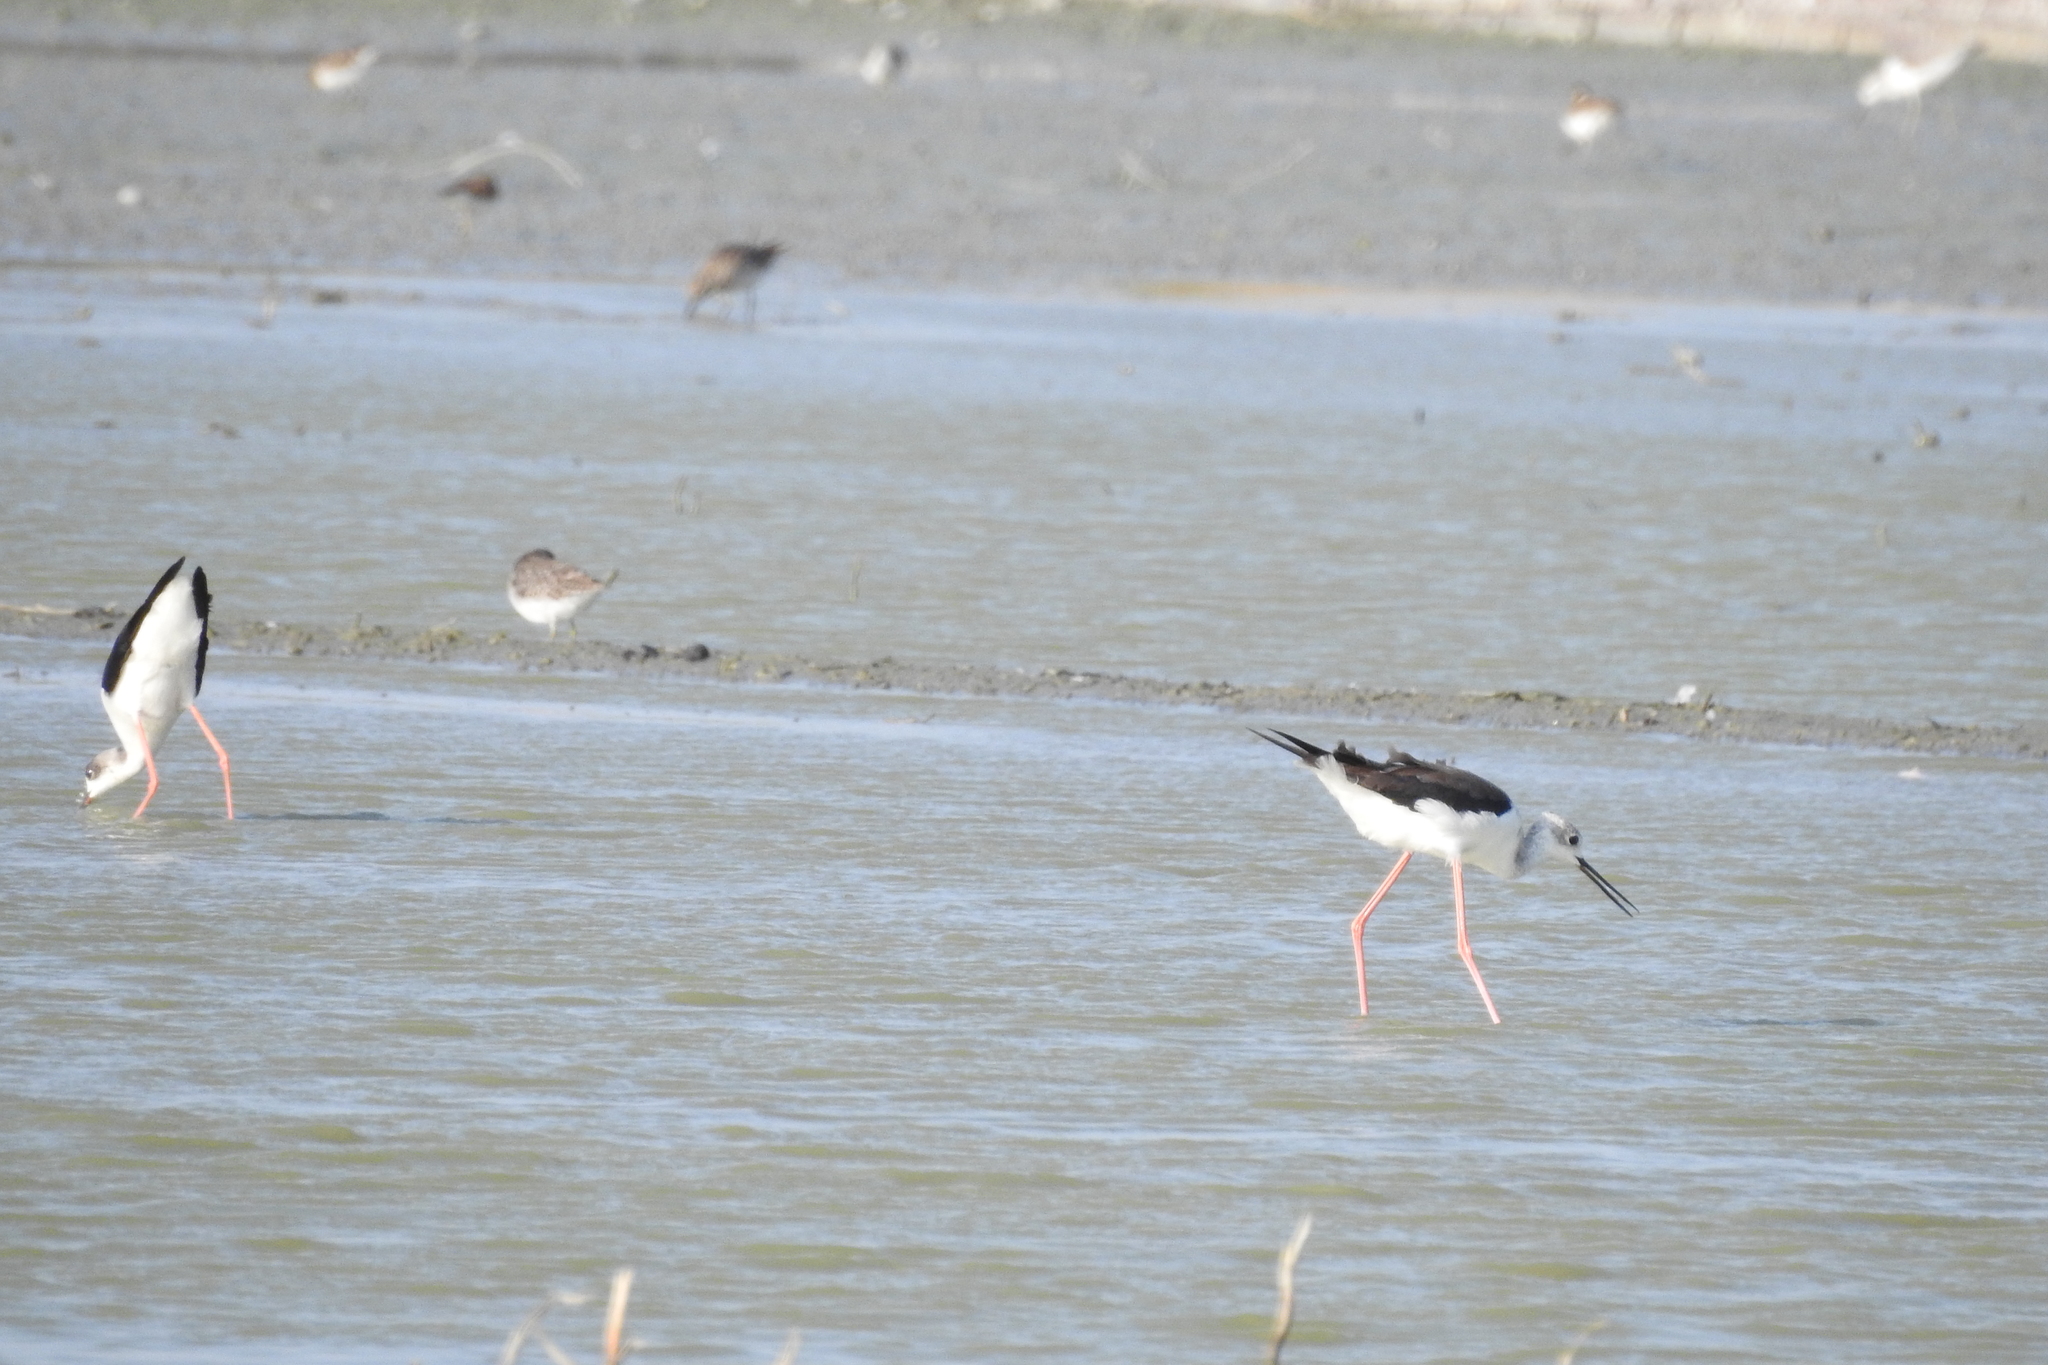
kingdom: Animalia
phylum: Chordata
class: Aves
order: Charadriiformes
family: Recurvirostridae
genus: Himantopus
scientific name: Himantopus himantopus
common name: Black-winged stilt
